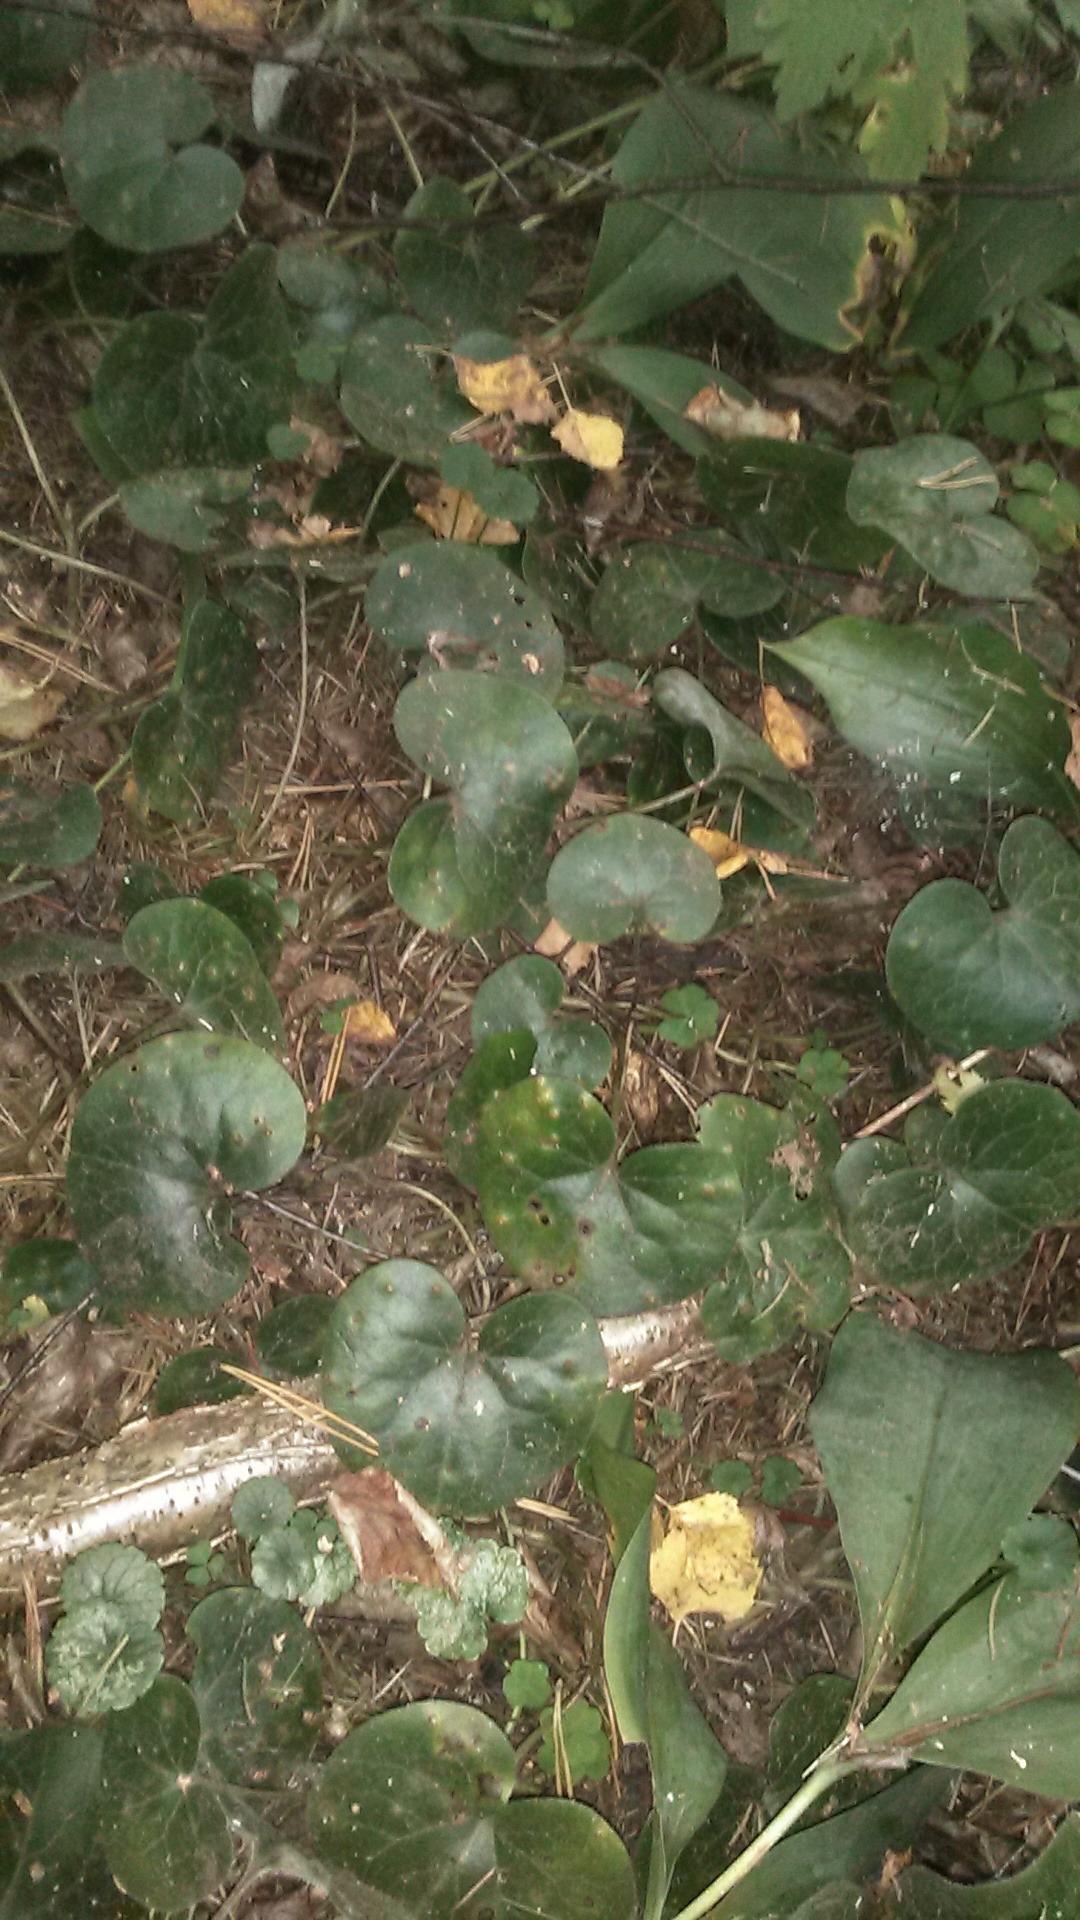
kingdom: Plantae
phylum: Tracheophyta
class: Magnoliopsida
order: Piperales
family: Aristolochiaceae
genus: Asarum
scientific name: Asarum europaeum
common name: Asarabacca
